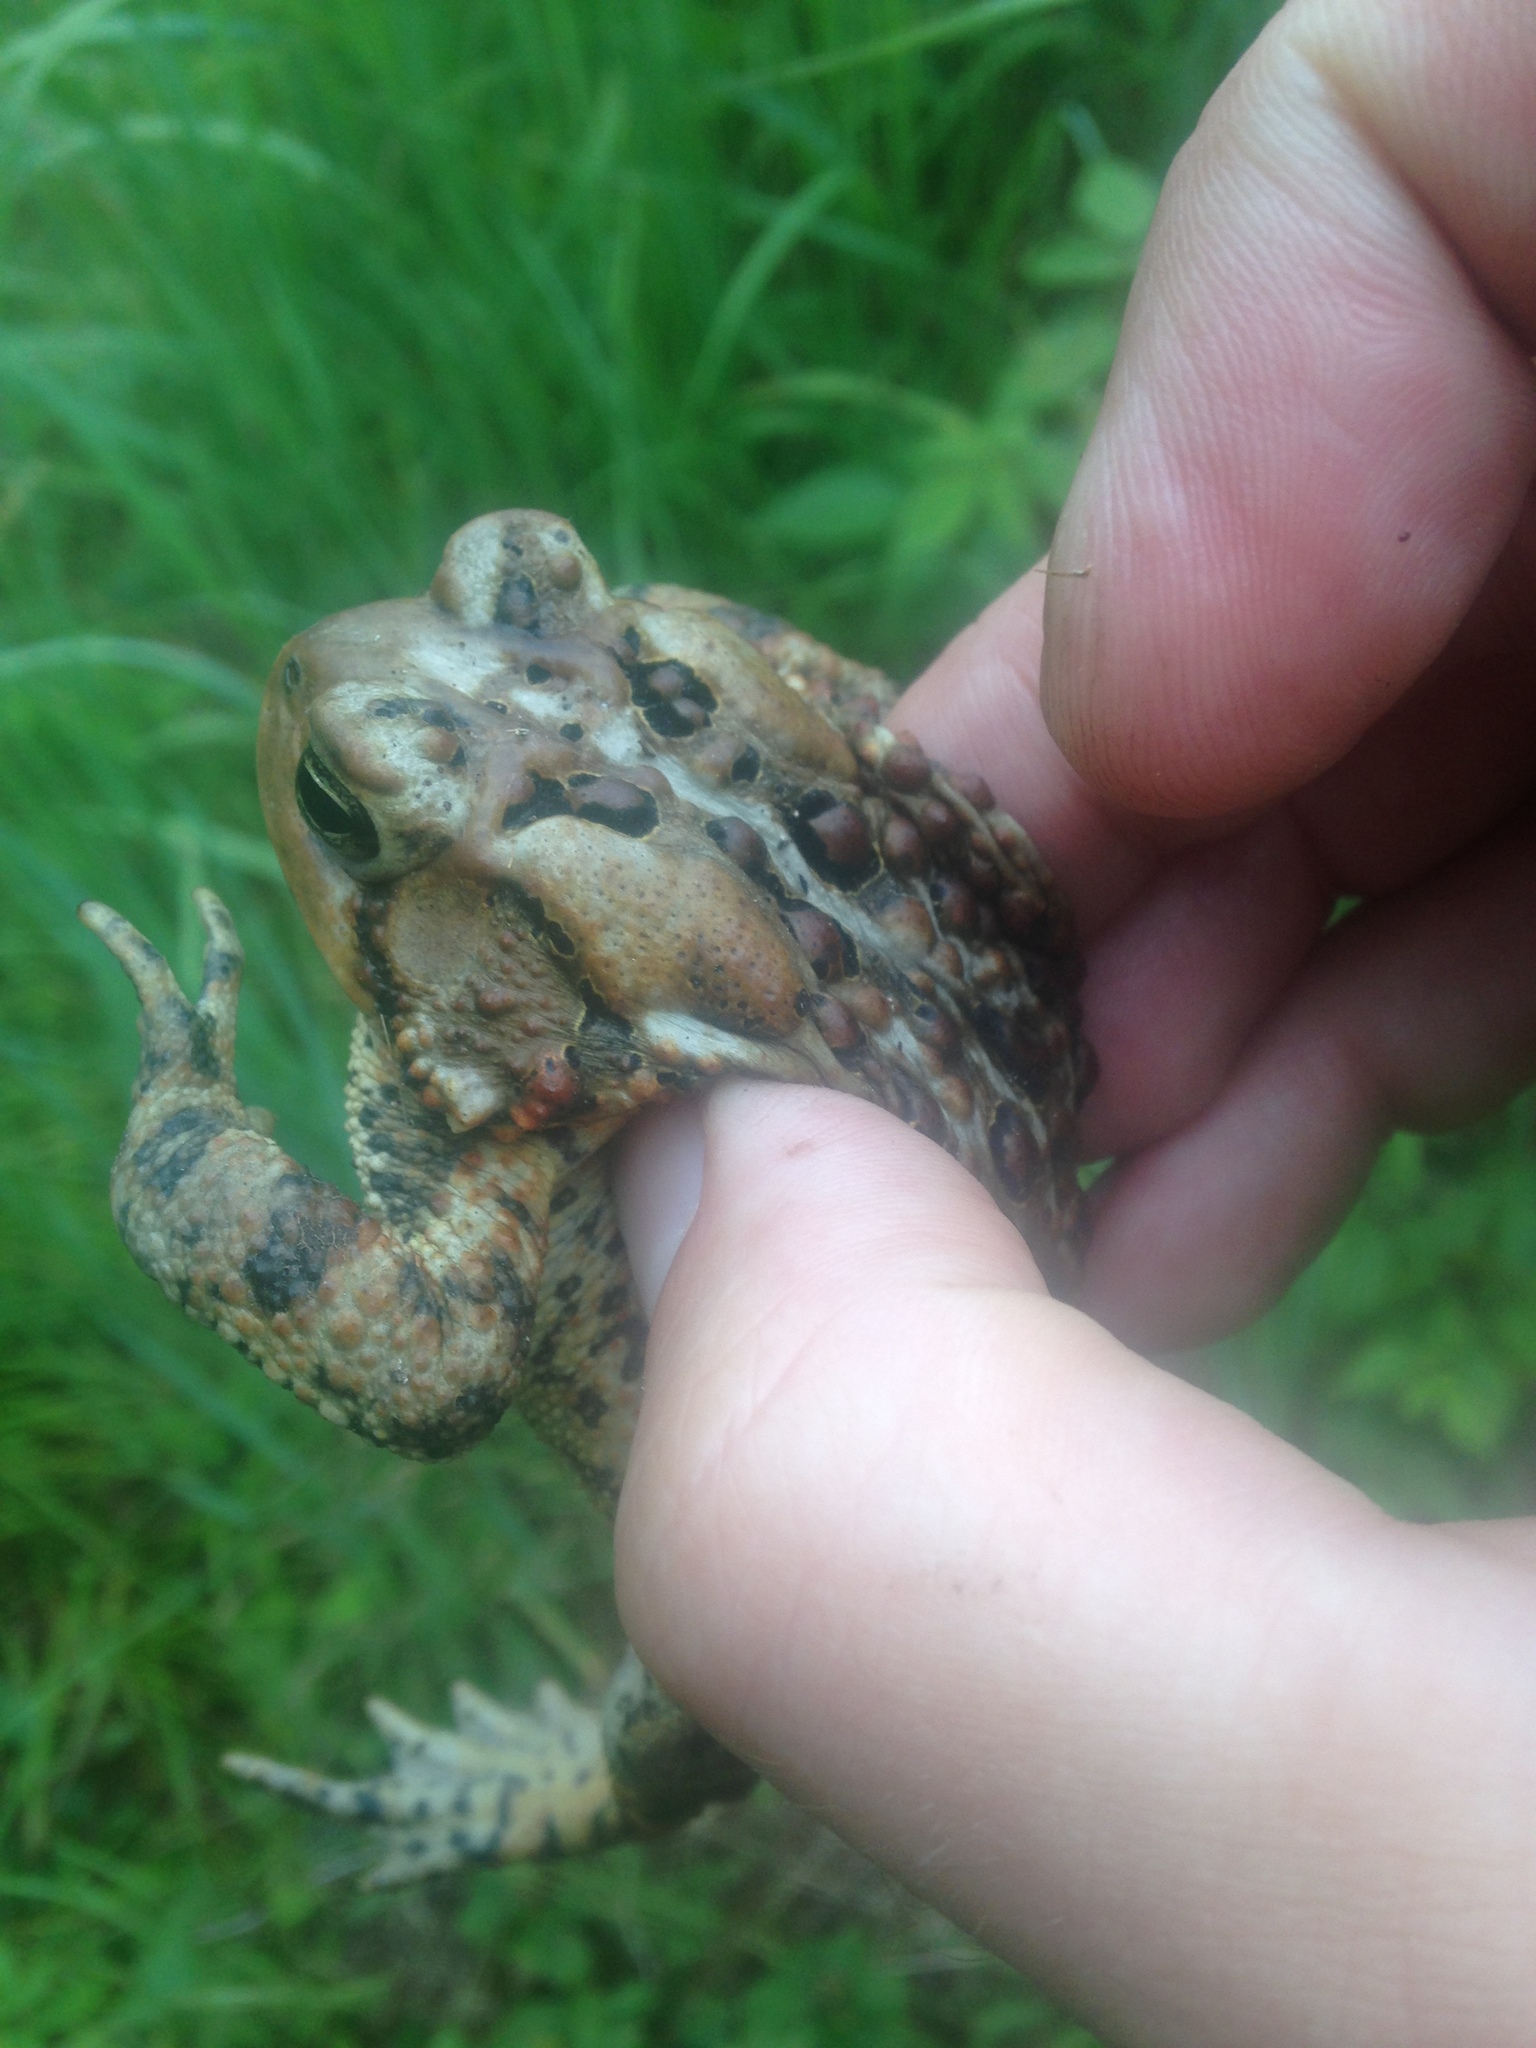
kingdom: Animalia
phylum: Chordata
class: Amphibia
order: Anura
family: Bufonidae
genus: Anaxyrus
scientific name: Anaxyrus americanus
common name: American toad
